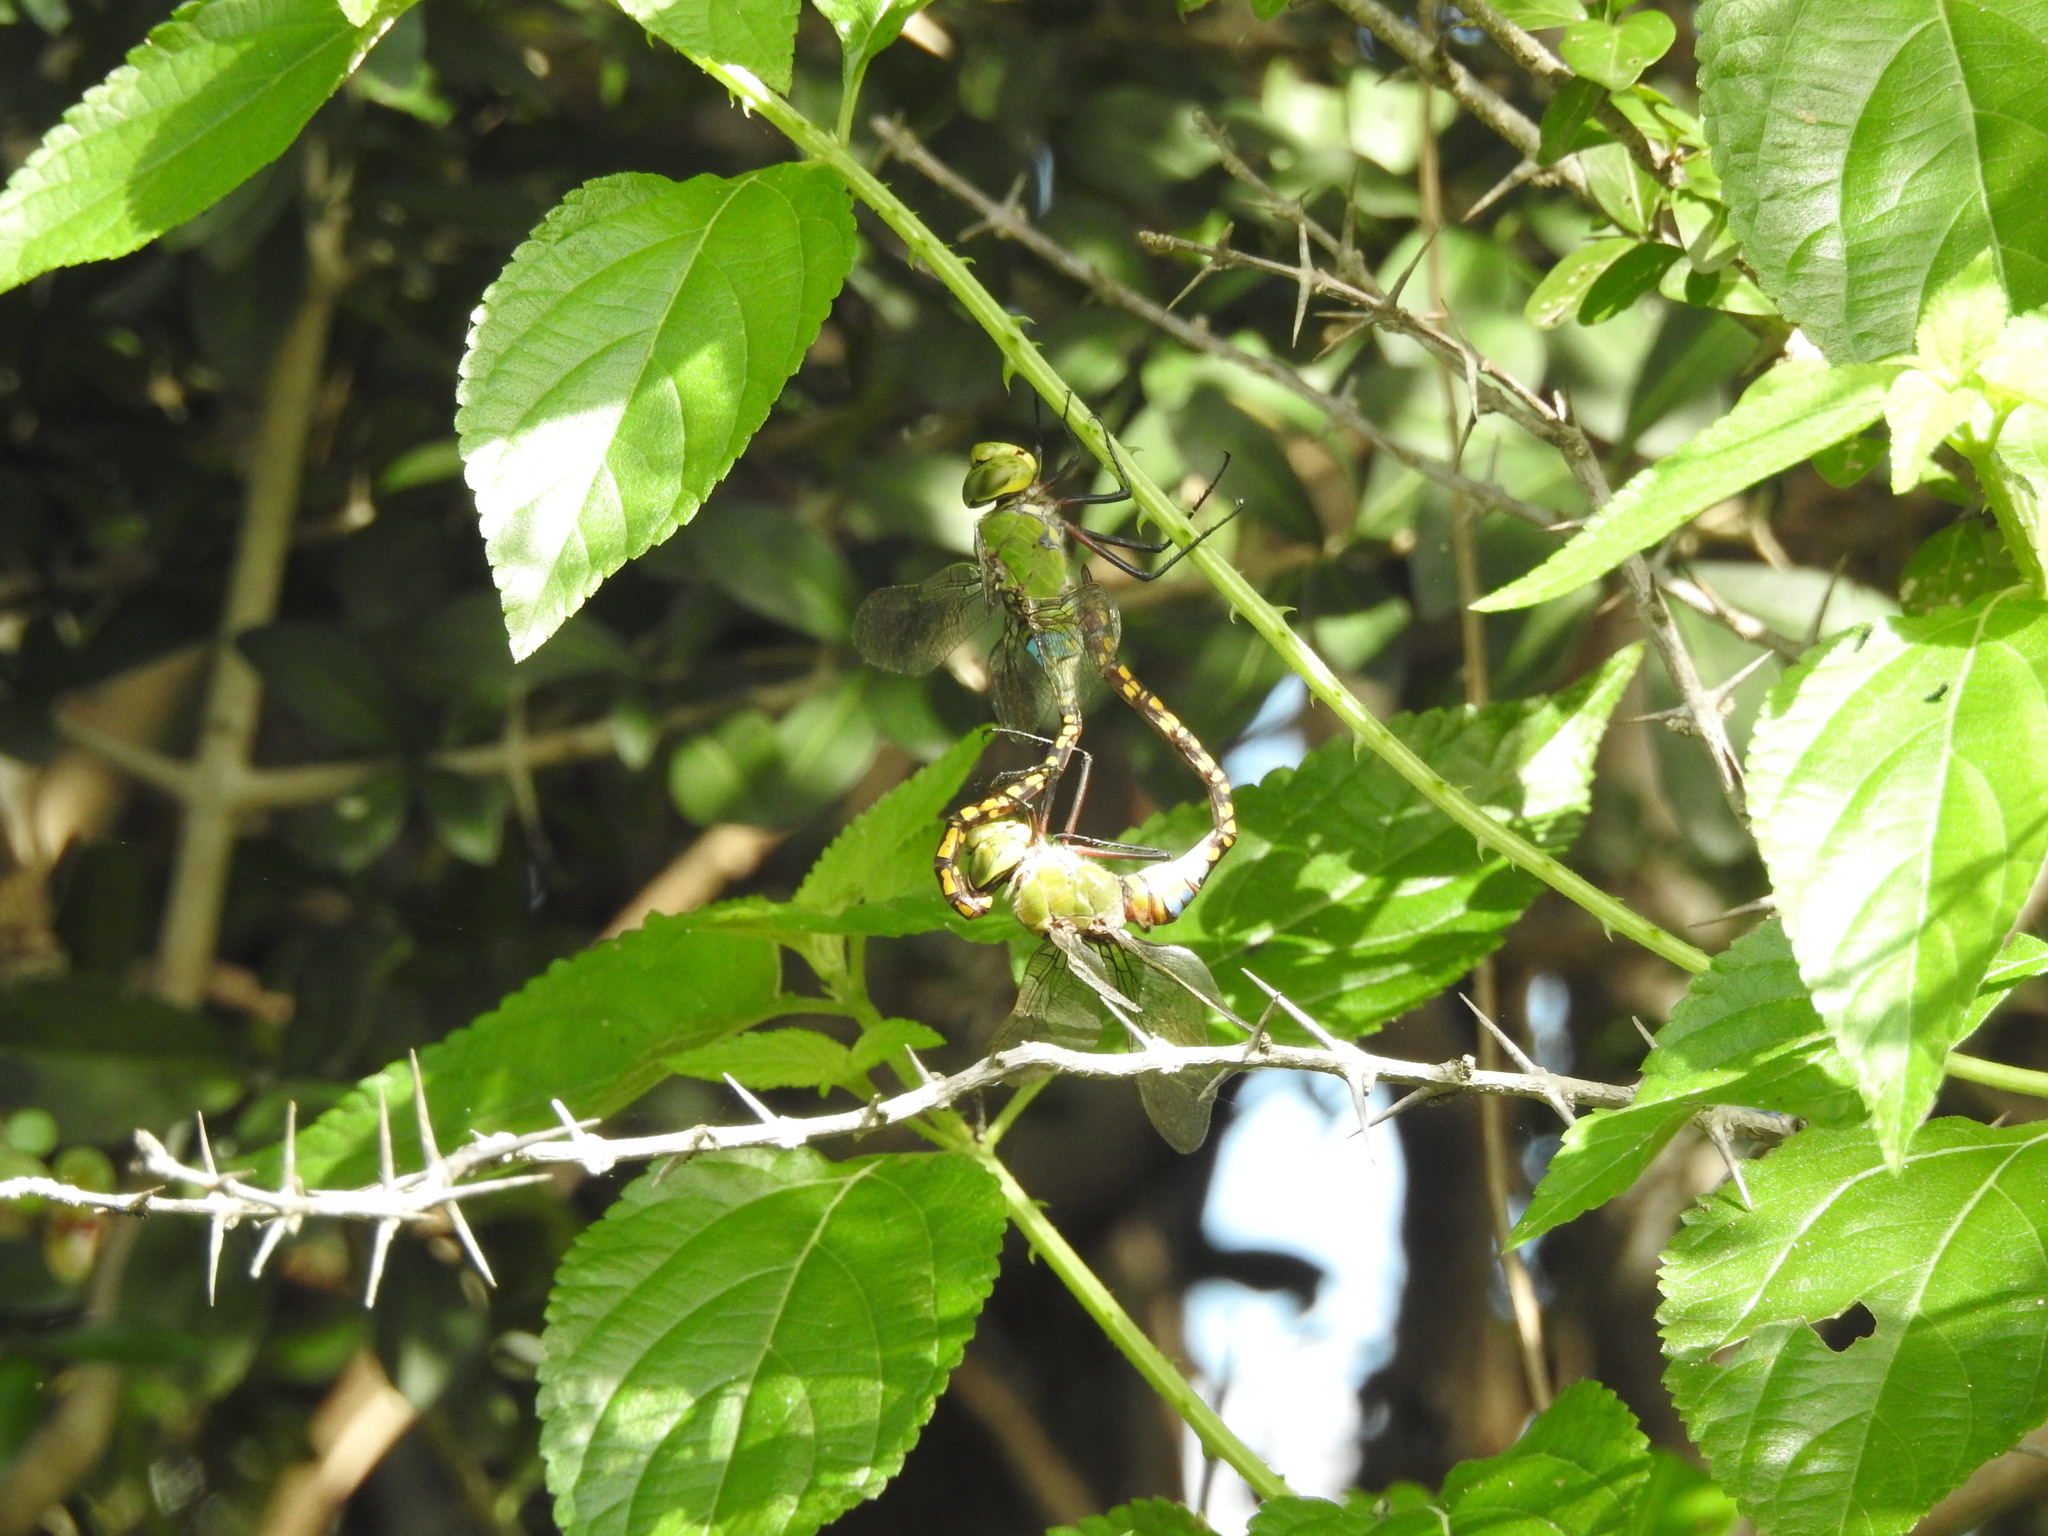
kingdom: Animalia
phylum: Arthropoda
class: Insecta
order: Odonata
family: Aeshnidae
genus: Anax
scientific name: Anax indicus
